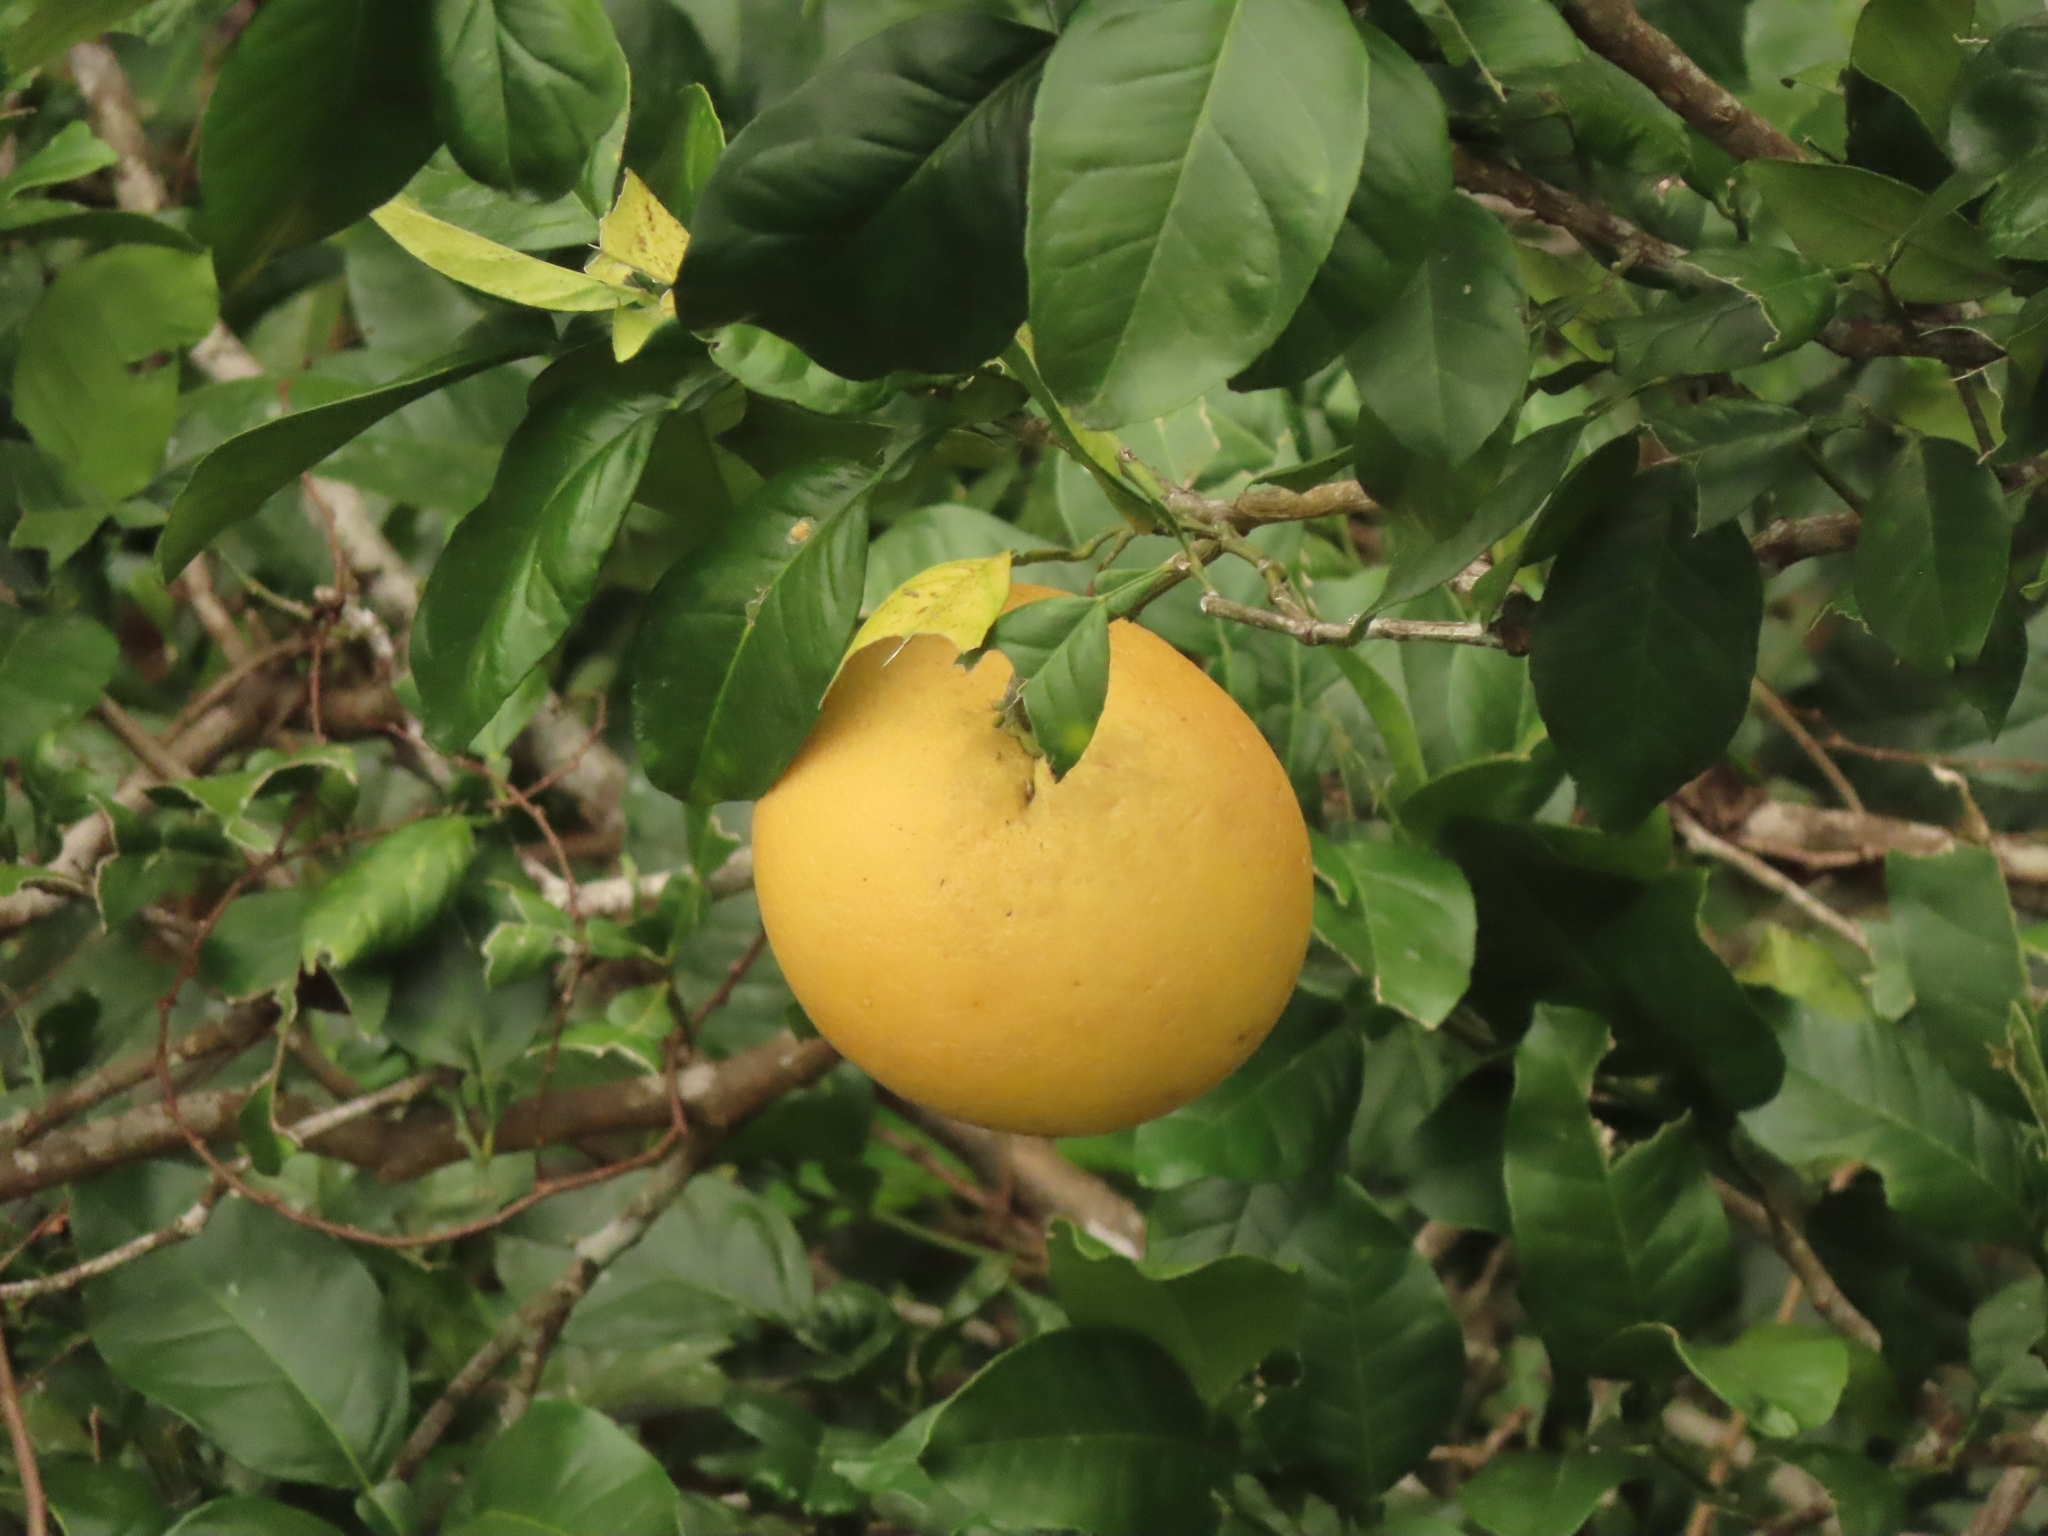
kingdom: Plantae
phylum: Tracheophyta
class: Magnoliopsida
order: Sapindales
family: Rutaceae
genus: Citrus
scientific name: Citrus maxima
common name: Pomelo
